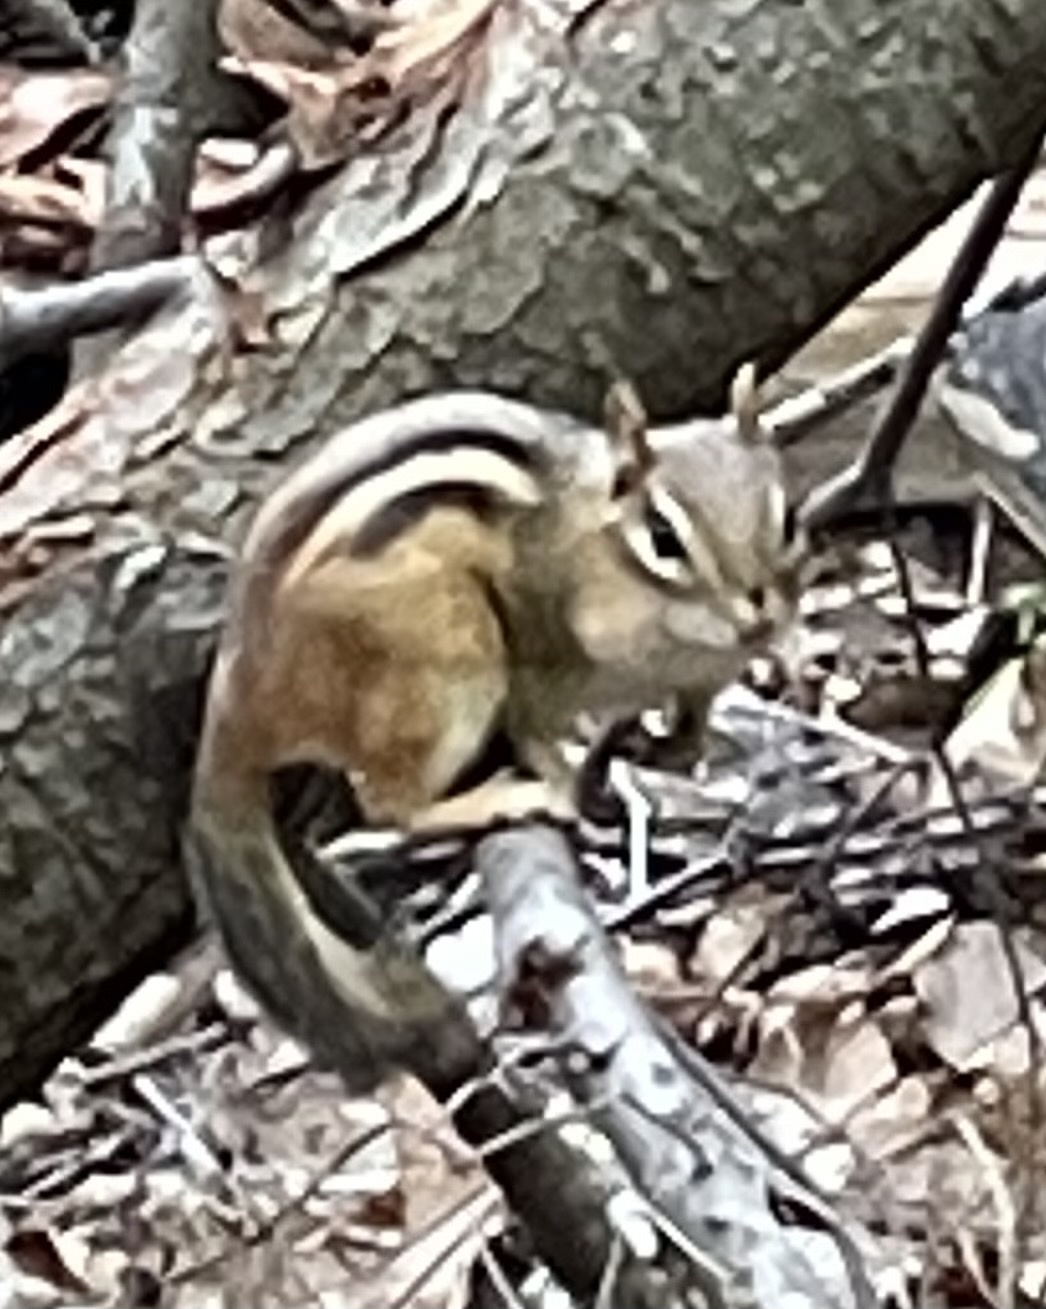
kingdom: Animalia
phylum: Chordata
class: Mammalia
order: Rodentia
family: Sciuridae
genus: Tamias
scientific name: Tamias striatus
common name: Eastern chipmunk
